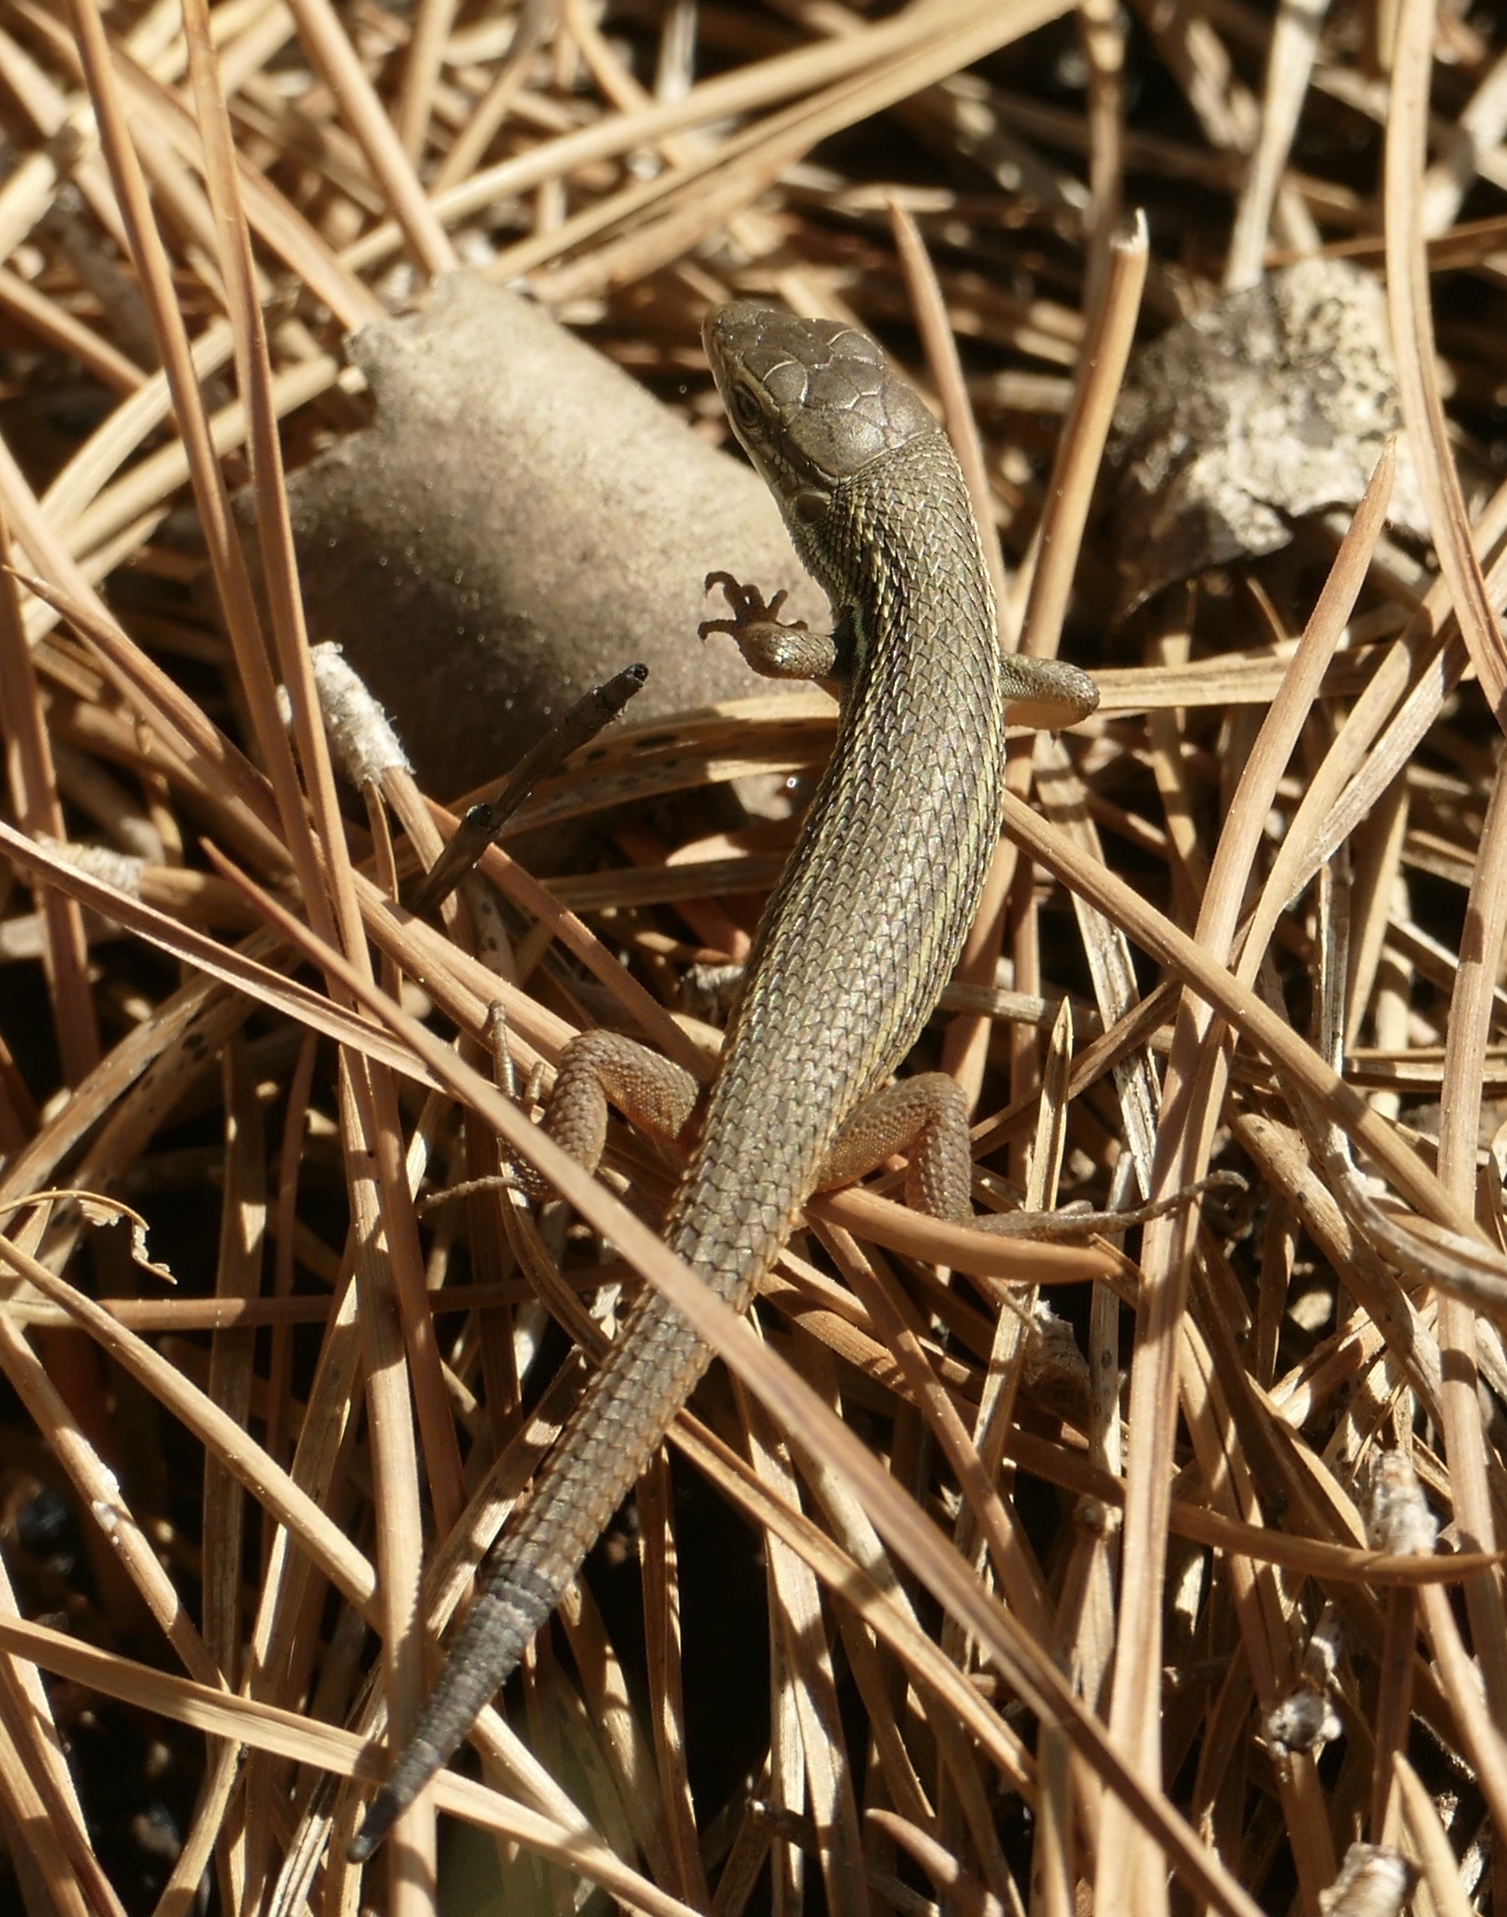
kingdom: Animalia
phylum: Chordata
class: Squamata
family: Lacertidae
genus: Psammodromus
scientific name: Psammodromus algirus
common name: Algerian psammodromus
